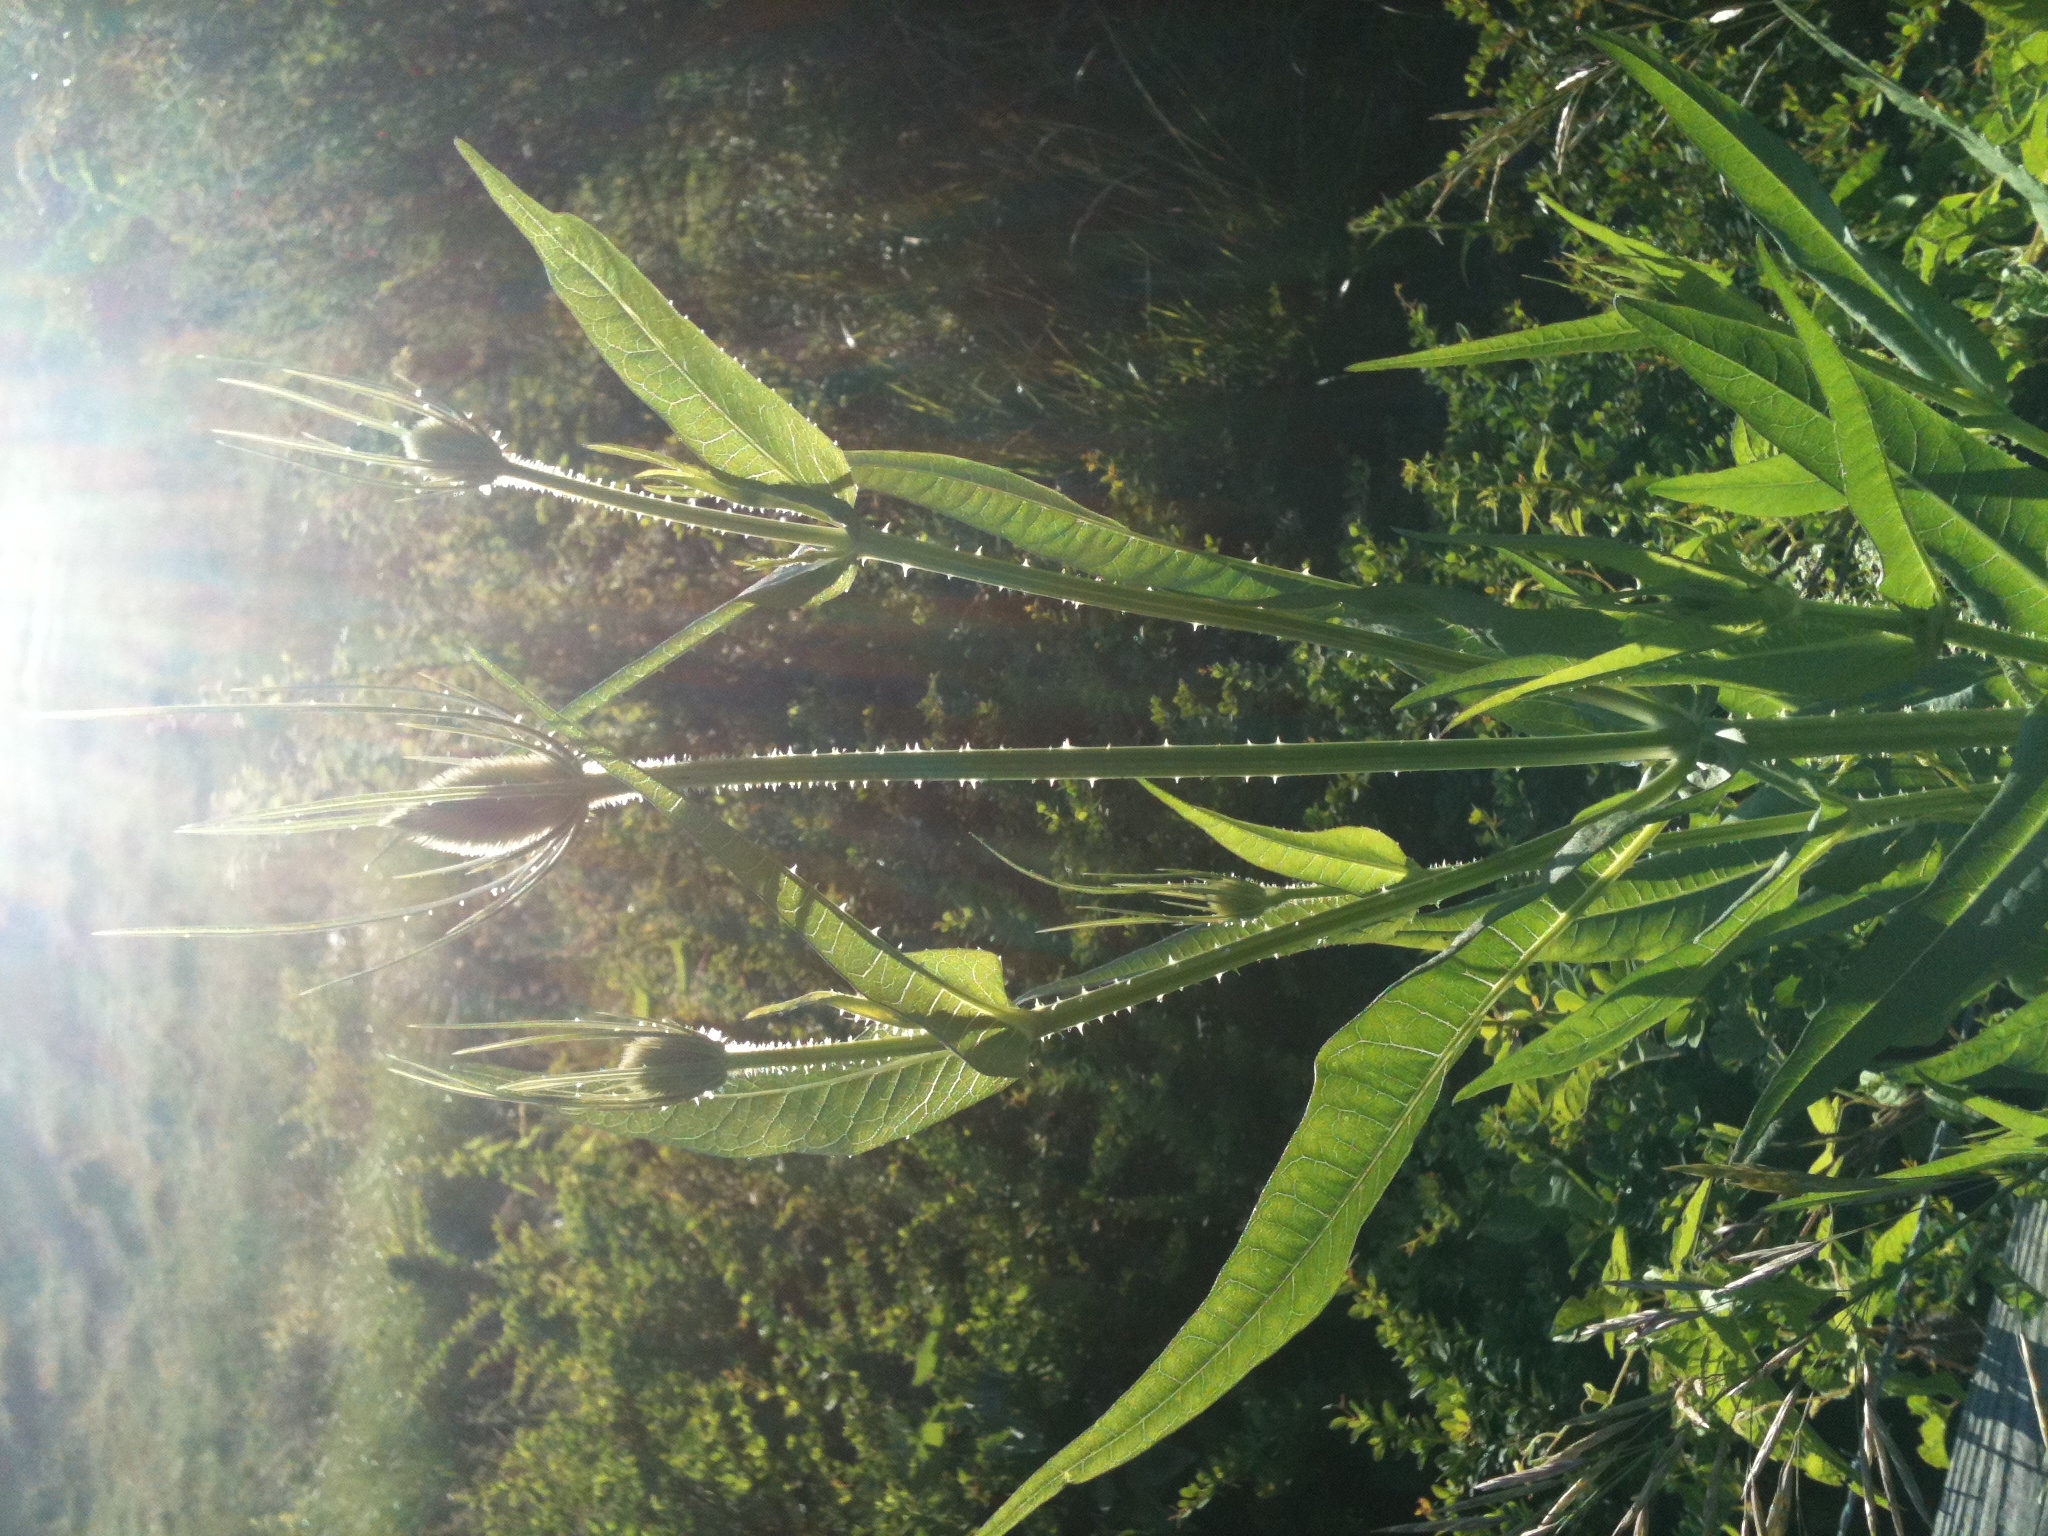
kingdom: Plantae
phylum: Tracheophyta
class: Magnoliopsida
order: Dipsacales
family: Caprifoliaceae
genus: Dipsacus
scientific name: Dipsacus fullonum
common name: Teasel
